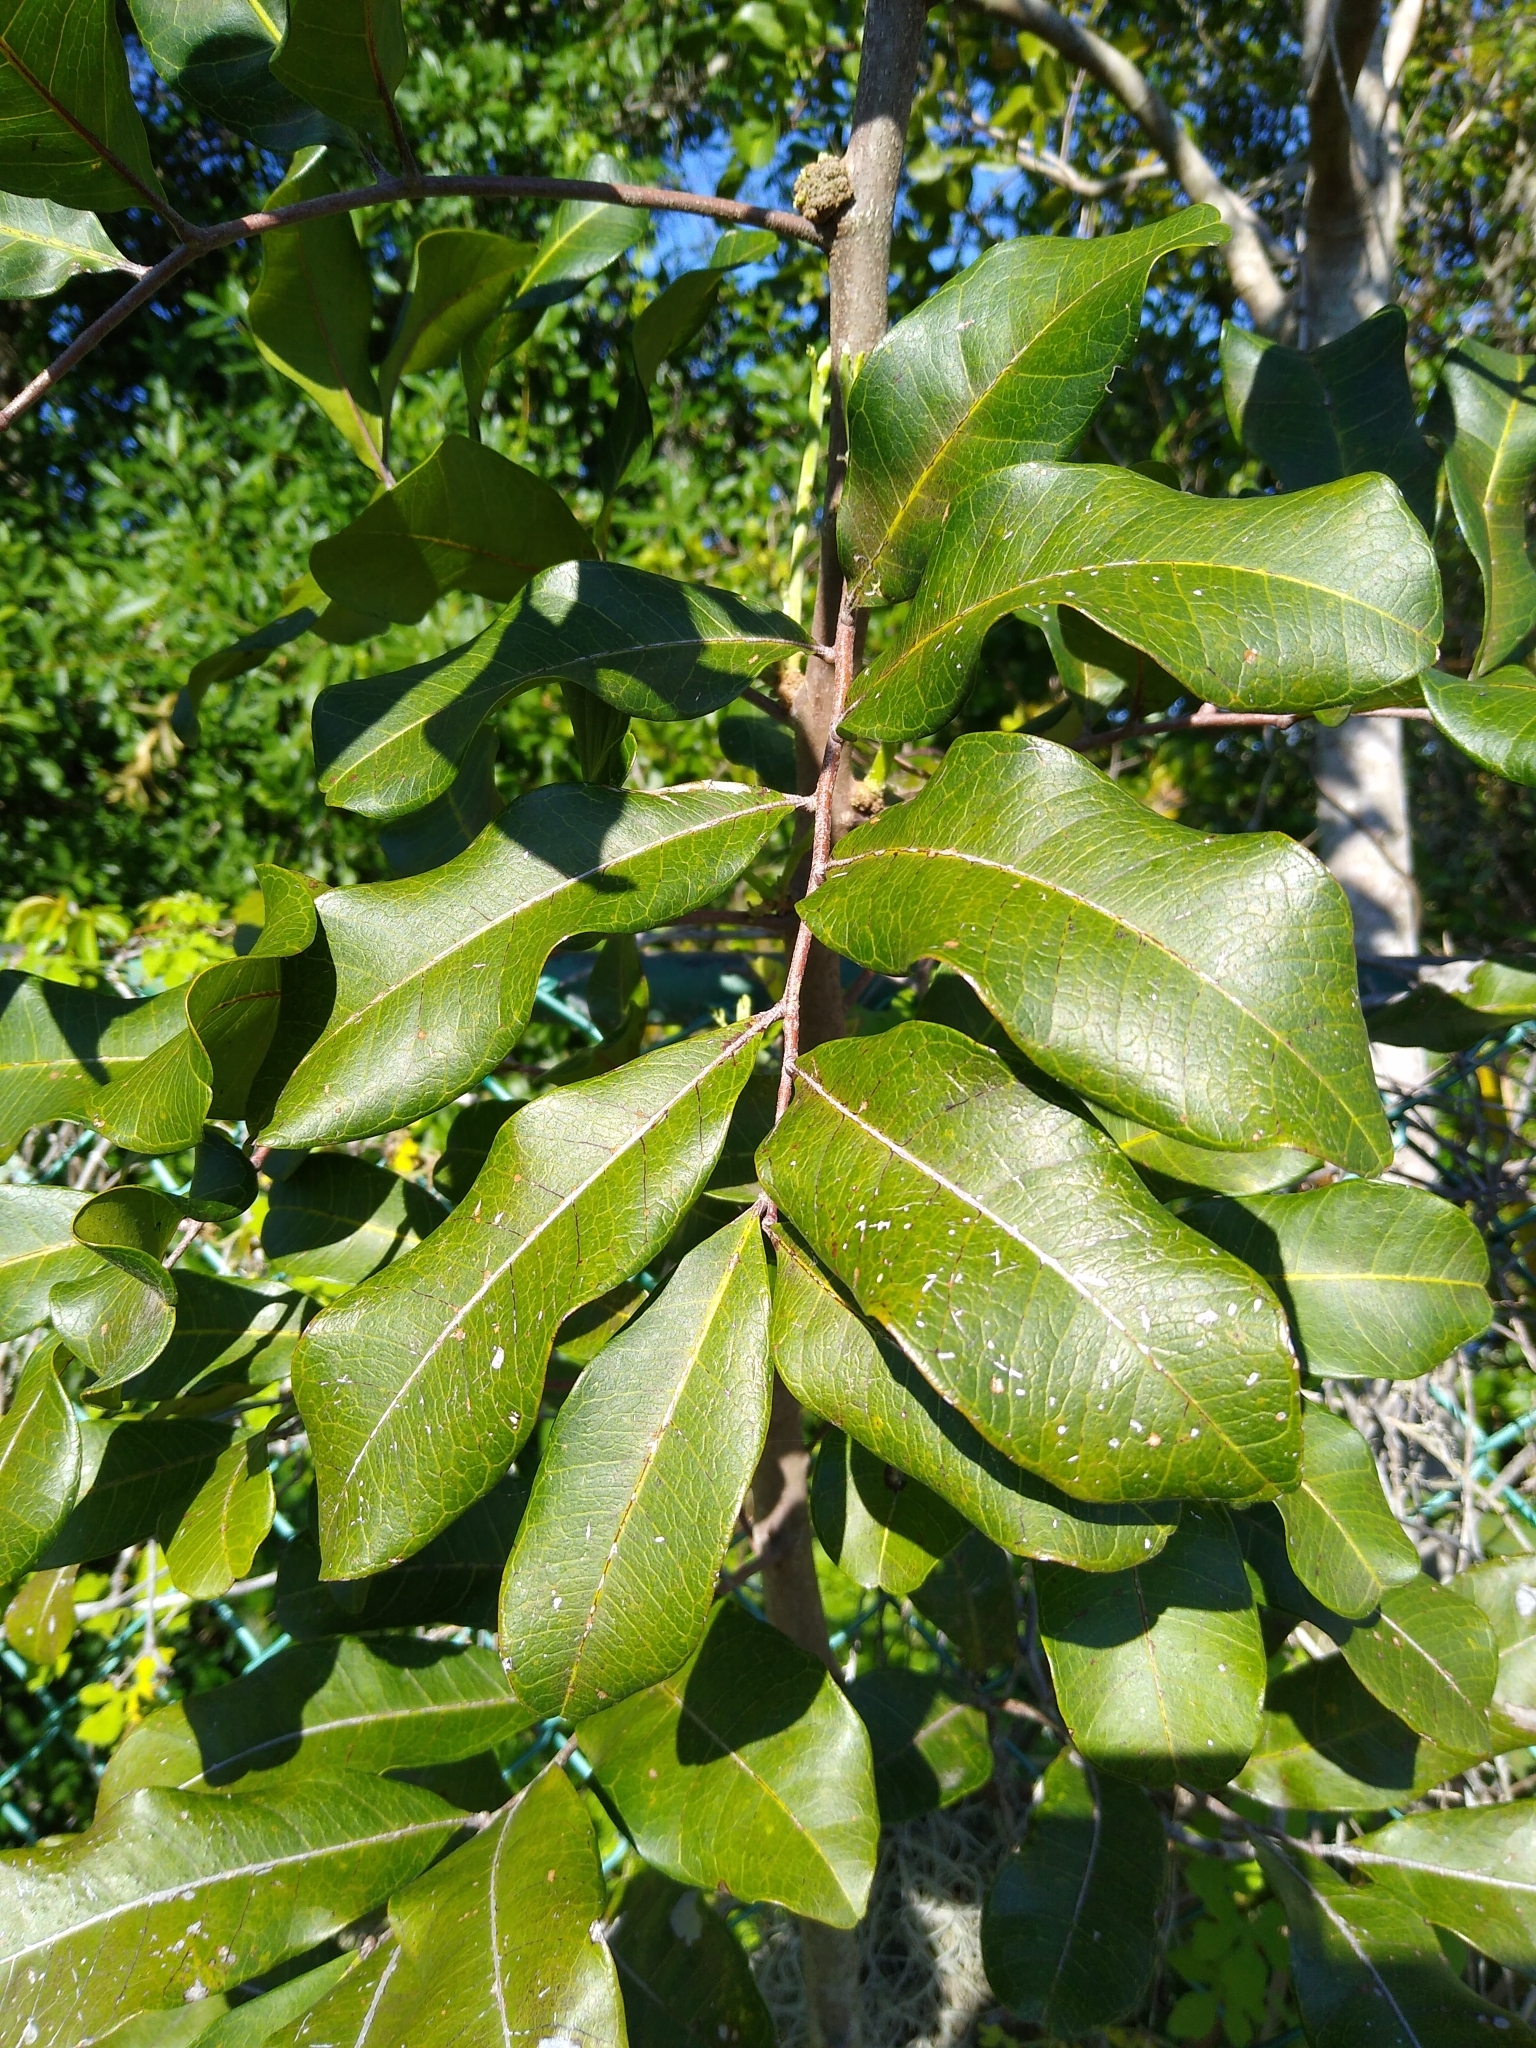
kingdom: Plantae
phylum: Tracheophyta
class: Magnoliopsida
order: Sapindales
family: Sapindaceae
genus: Cupaniopsis
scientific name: Cupaniopsis anacardioides
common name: Carrotwood
